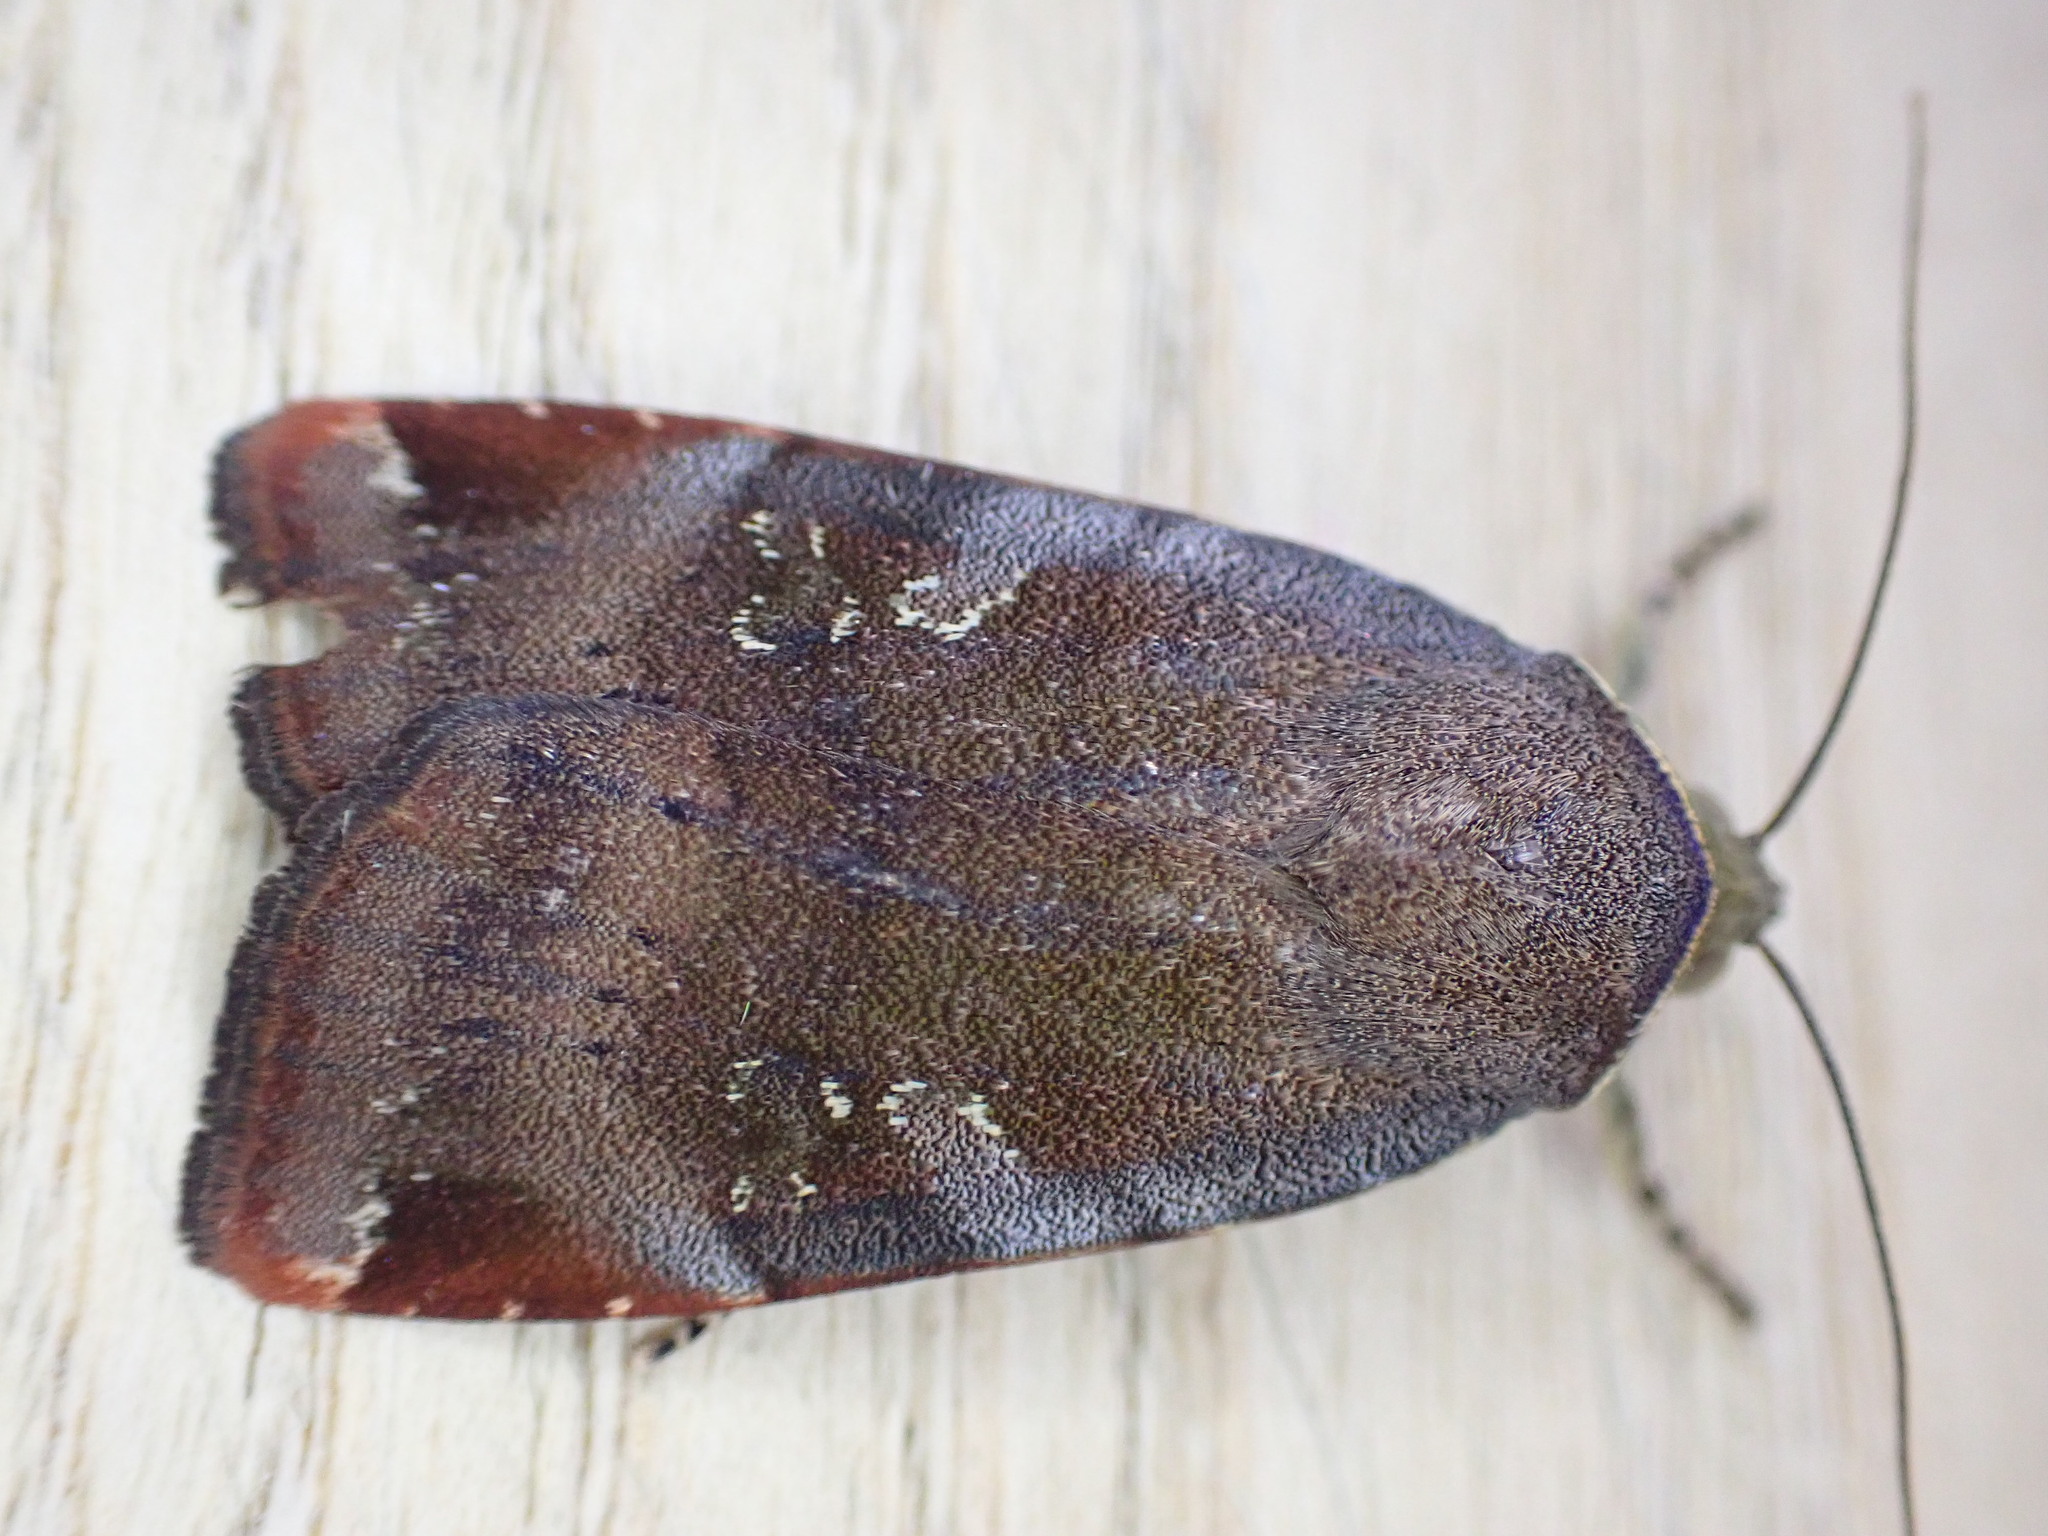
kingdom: Animalia
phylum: Arthropoda
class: Insecta
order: Lepidoptera
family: Noctuidae
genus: Noctua
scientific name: Noctua janthe
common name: Lesser broad-bordered yellow underwing
